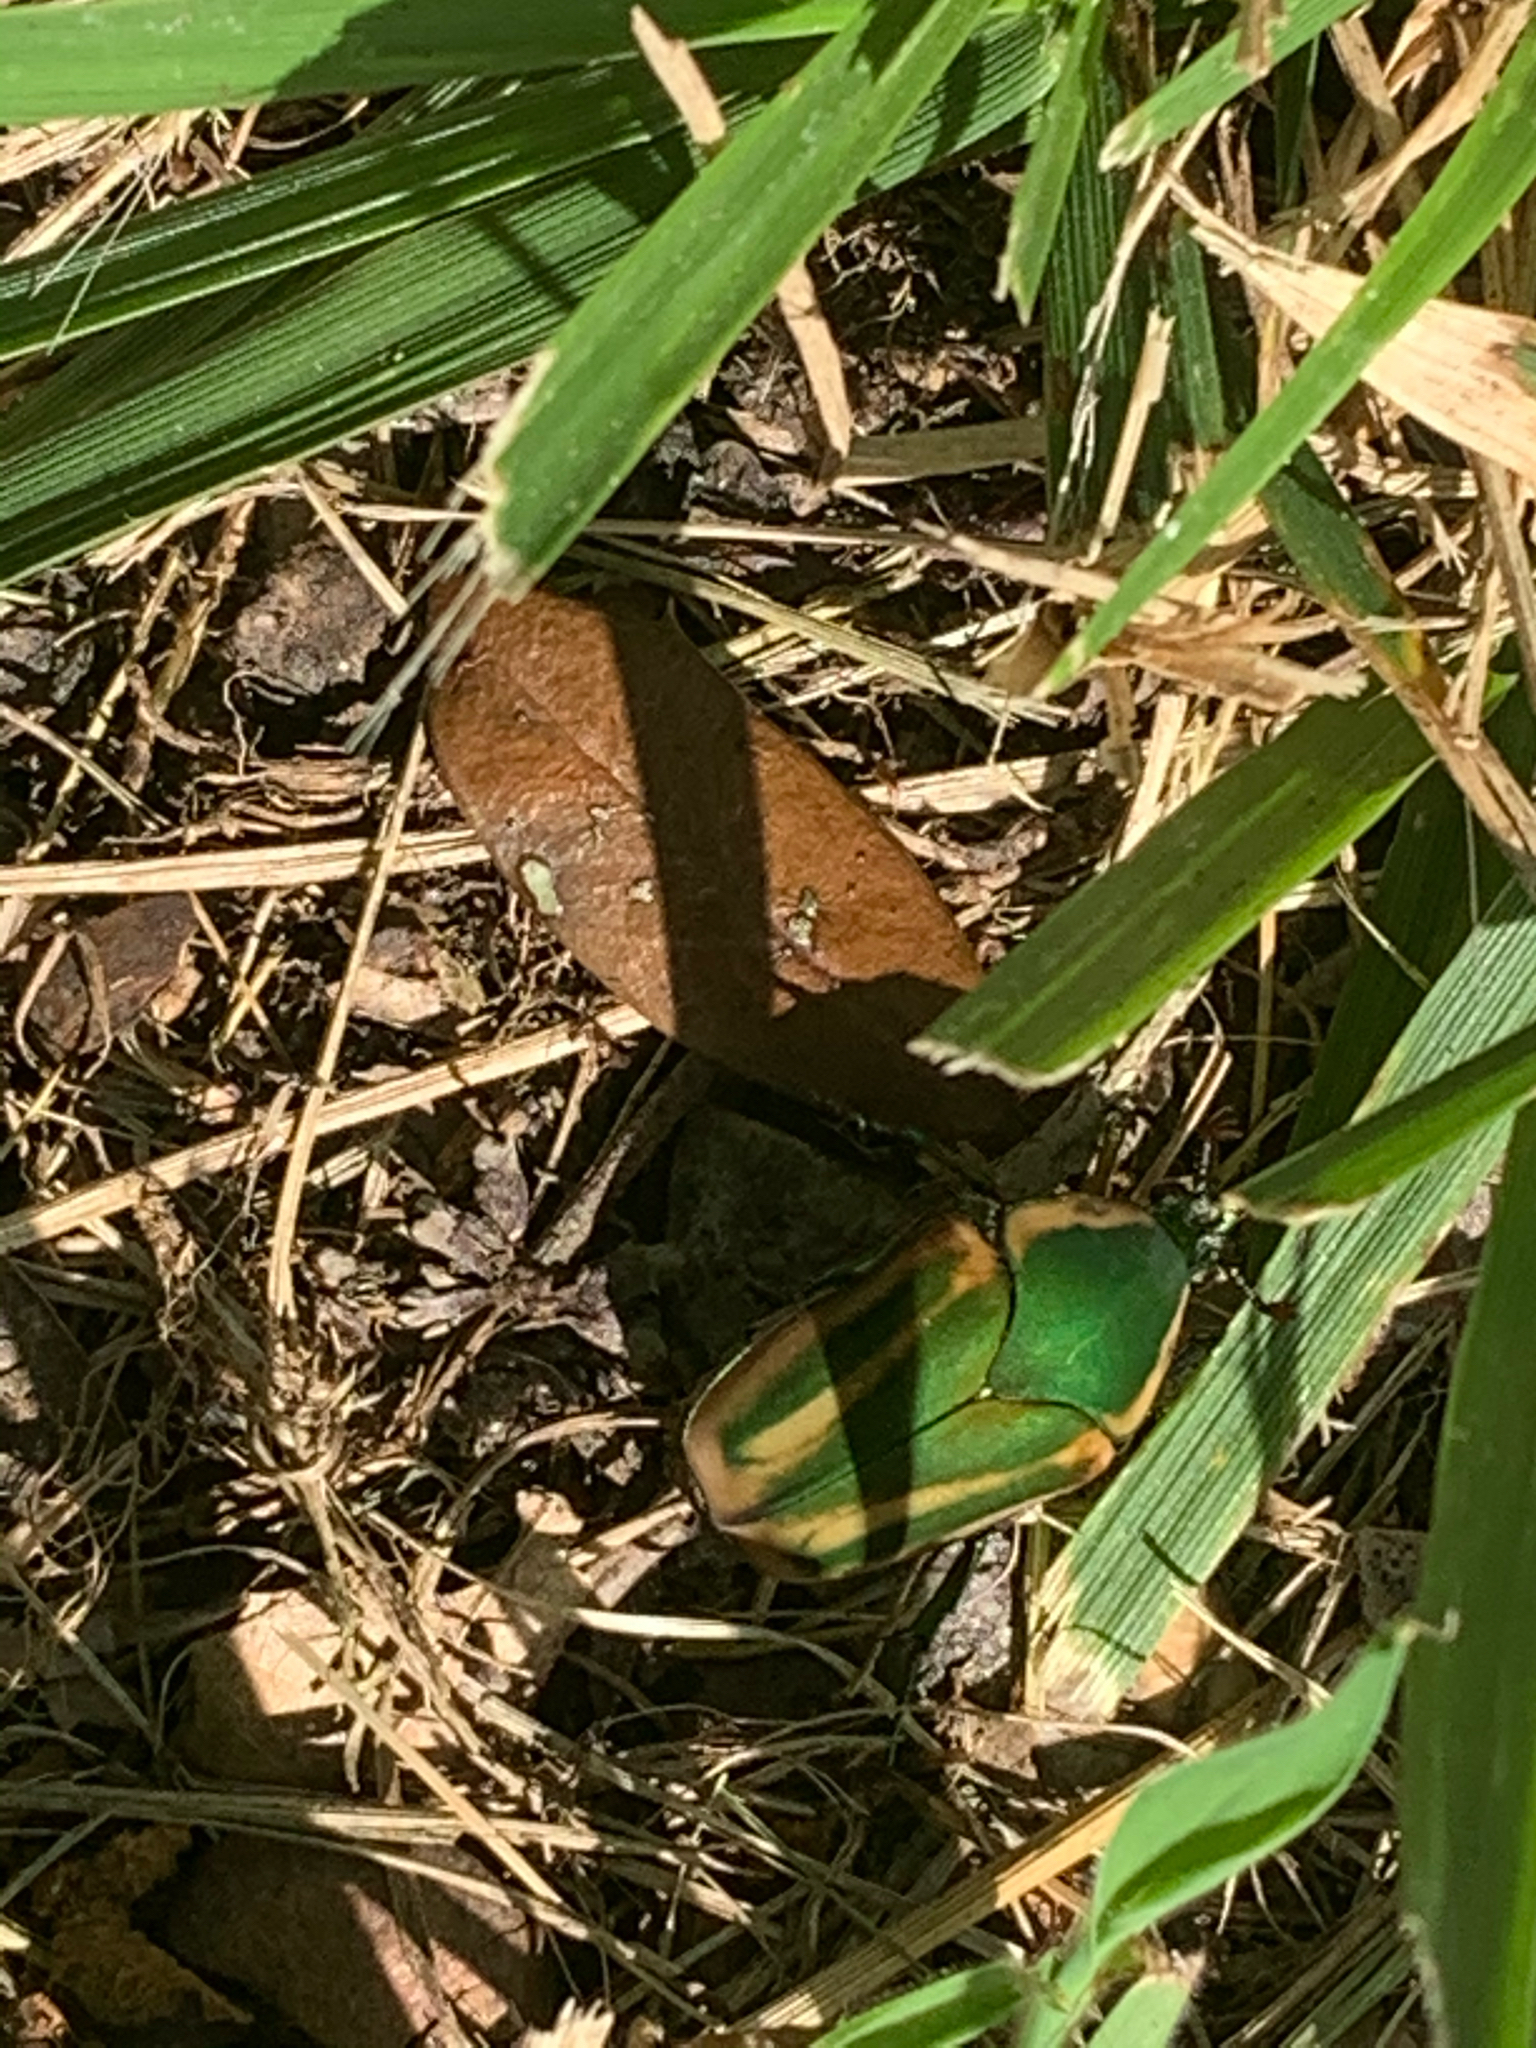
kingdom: Animalia
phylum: Arthropoda
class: Insecta
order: Coleoptera
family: Scarabaeidae
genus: Cotinis
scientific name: Cotinis nitida
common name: Common green june beetle
